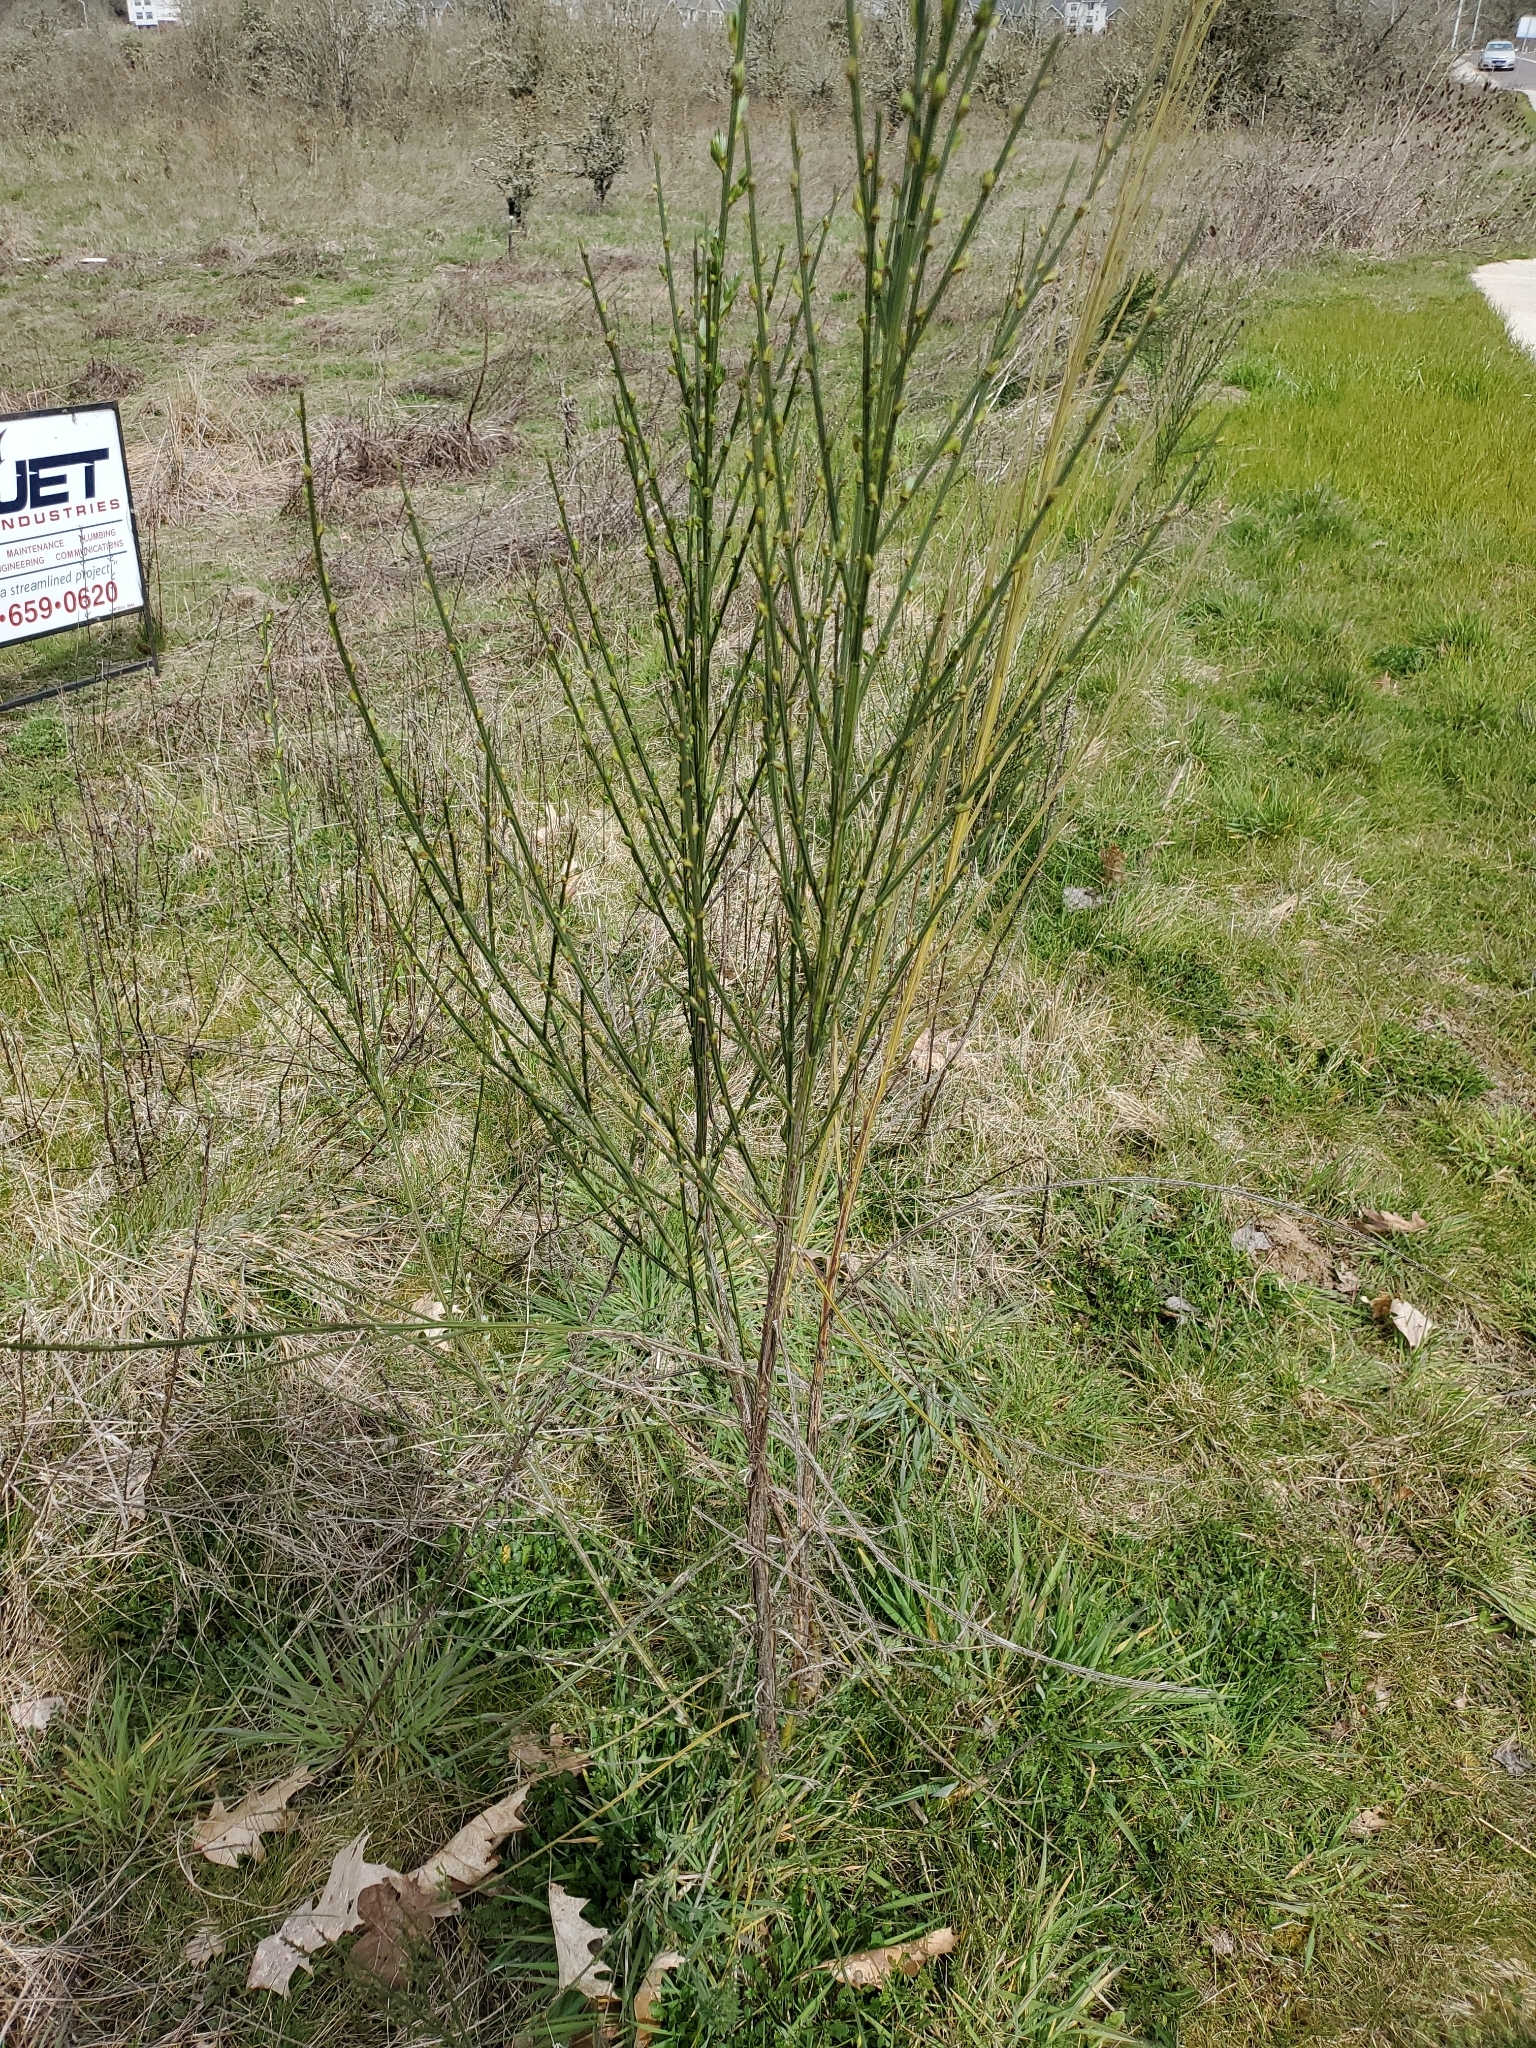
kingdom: Plantae
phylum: Tracheophyta
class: Magnoliopsida
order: Fabales
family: Fabaceae
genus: Cytisus
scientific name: Cytisus scoparius
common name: Scotch broom
